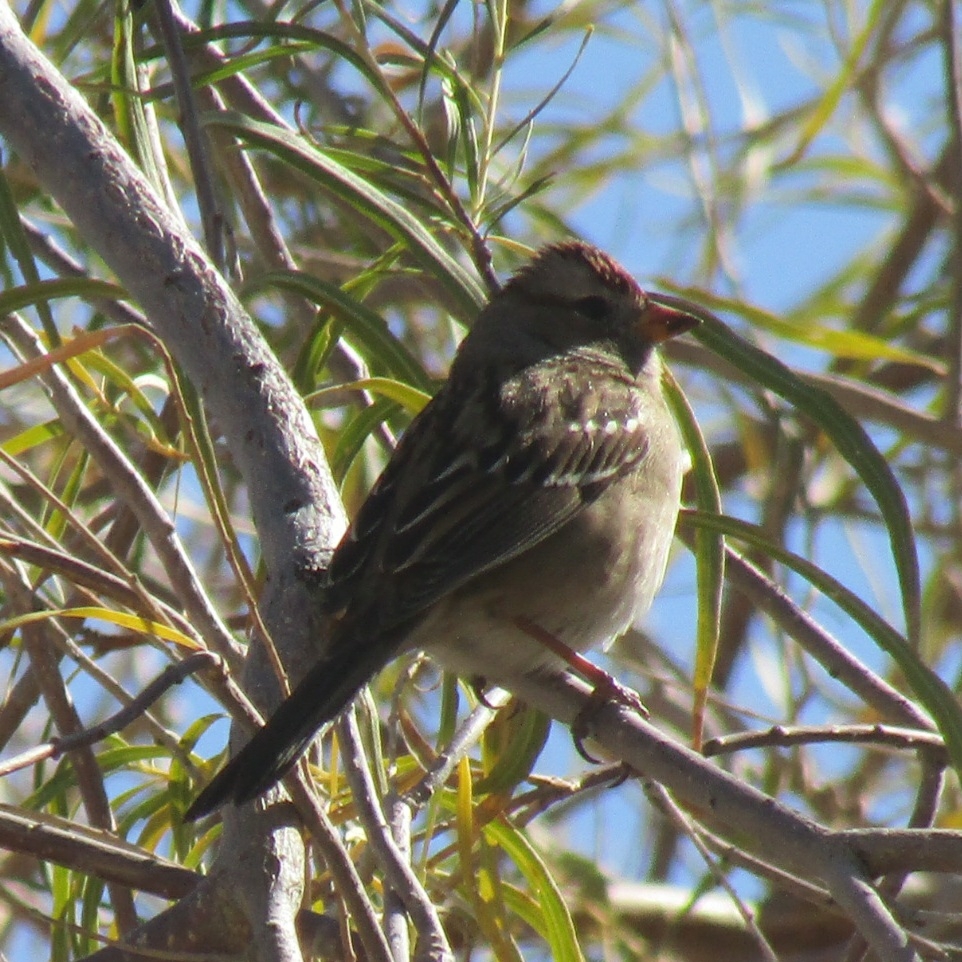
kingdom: Animalia
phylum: Chordata
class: Aves
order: Passeriformes
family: Passerellidae
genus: Zonotrichia
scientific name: Zonotrichia leucophrys
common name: White-crowned sparrow
